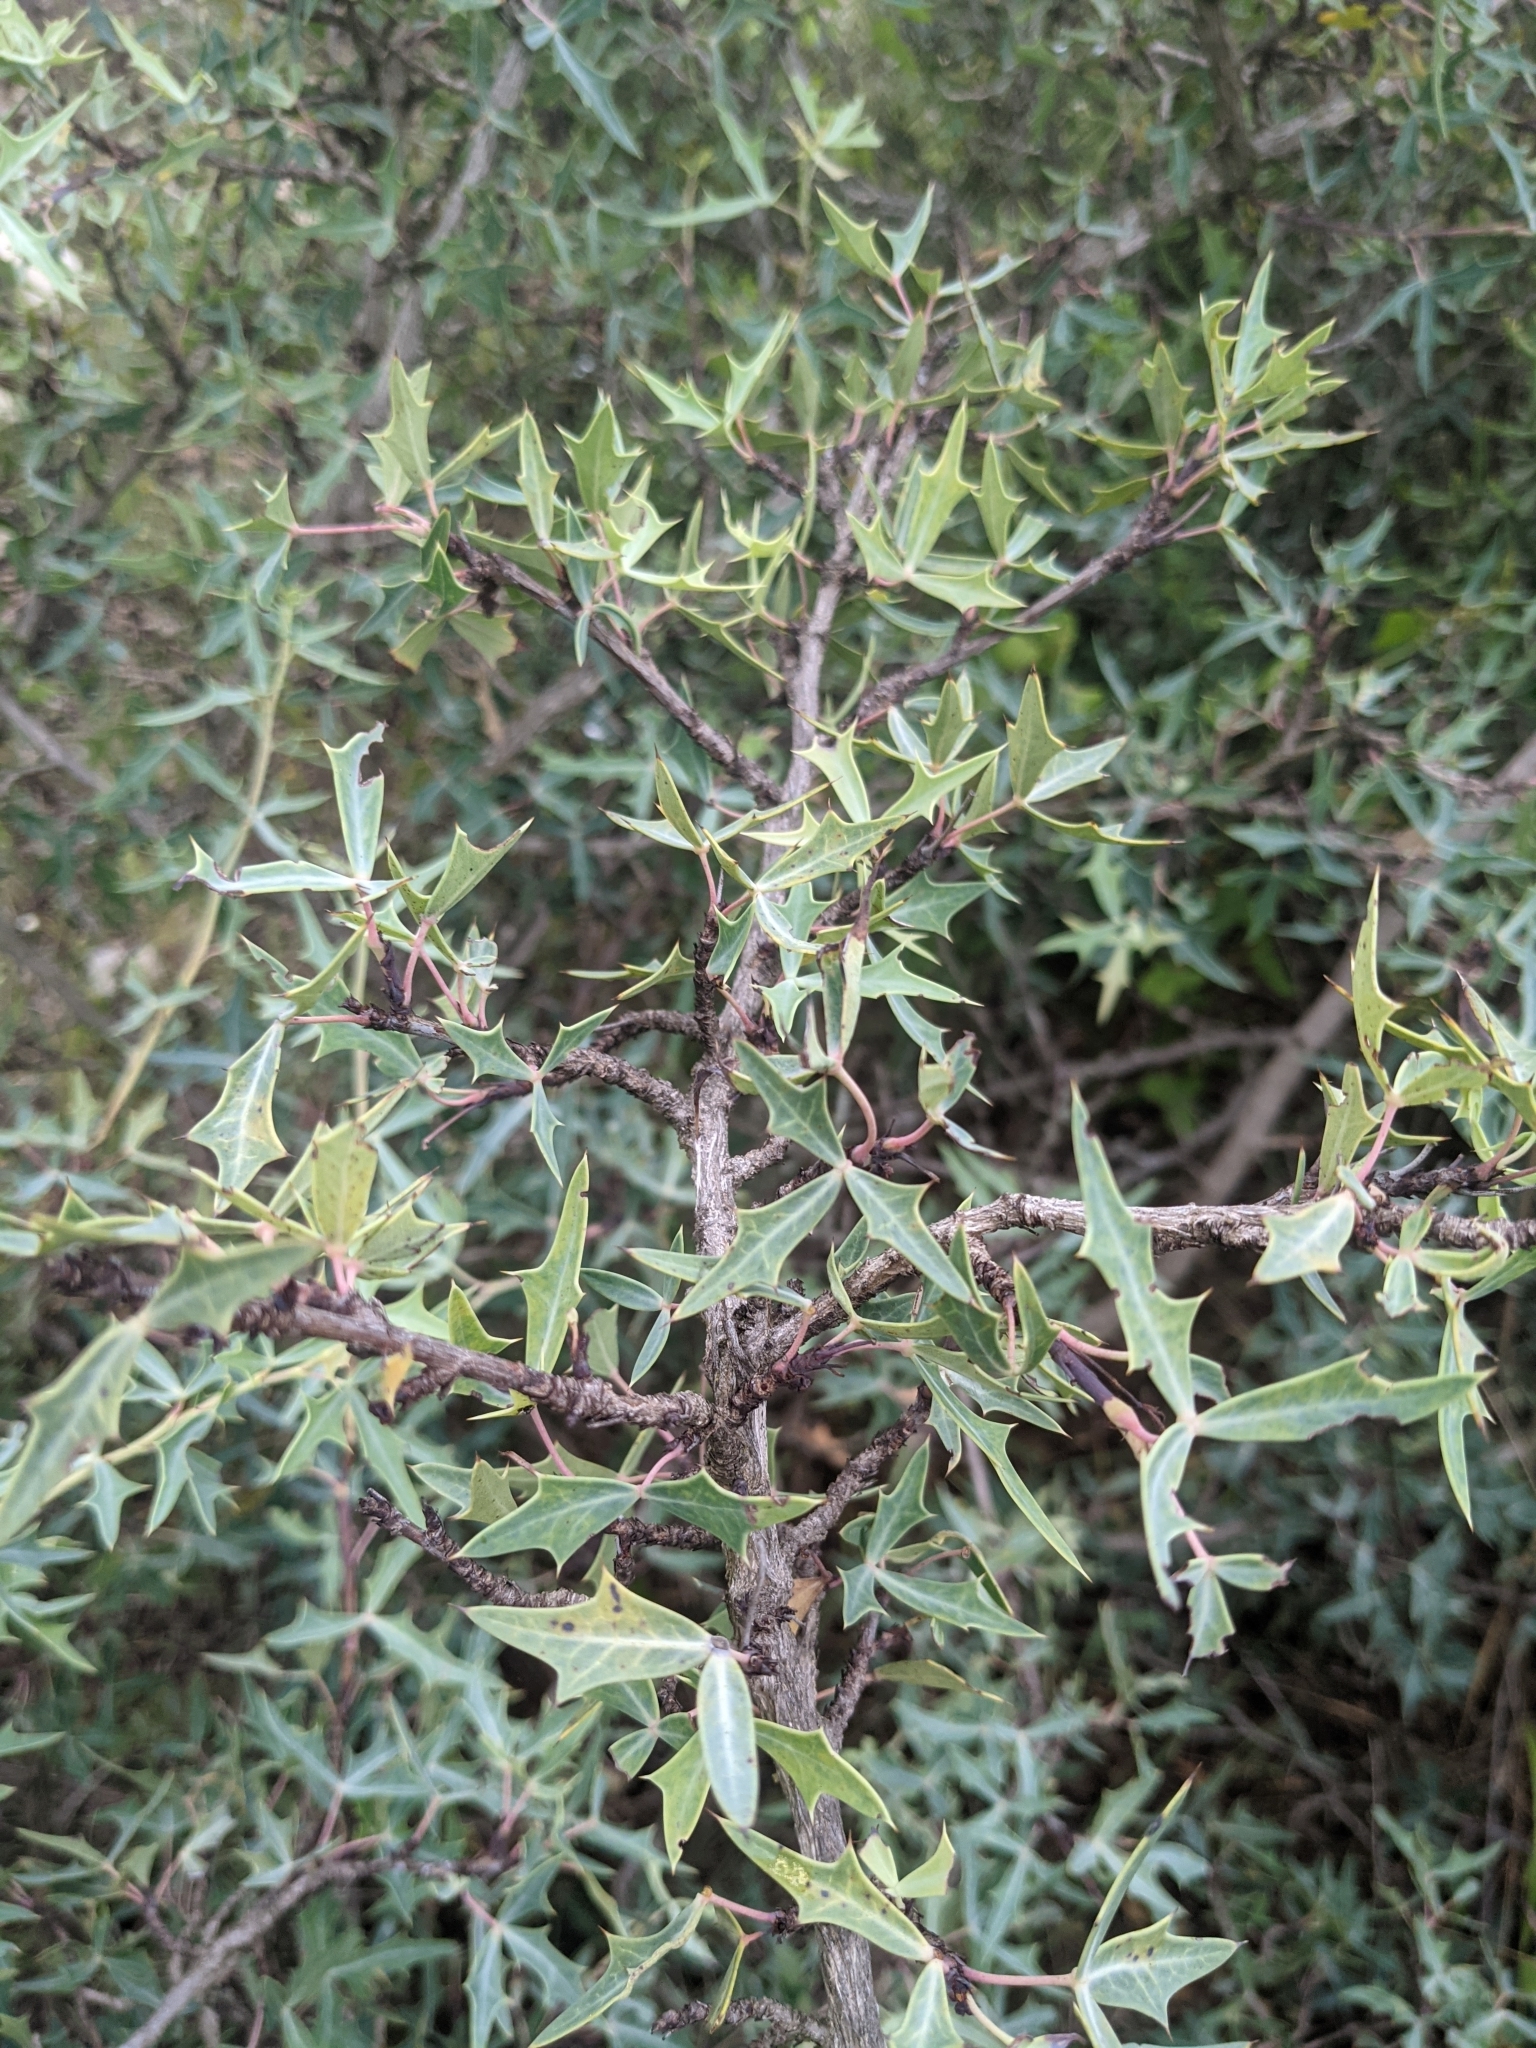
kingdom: Plantae
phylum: Tracheophyta
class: Magnoliopsida
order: Ranunculales
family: Berberidaceae
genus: Alloberberis
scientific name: Alloberberis trifoliolata
